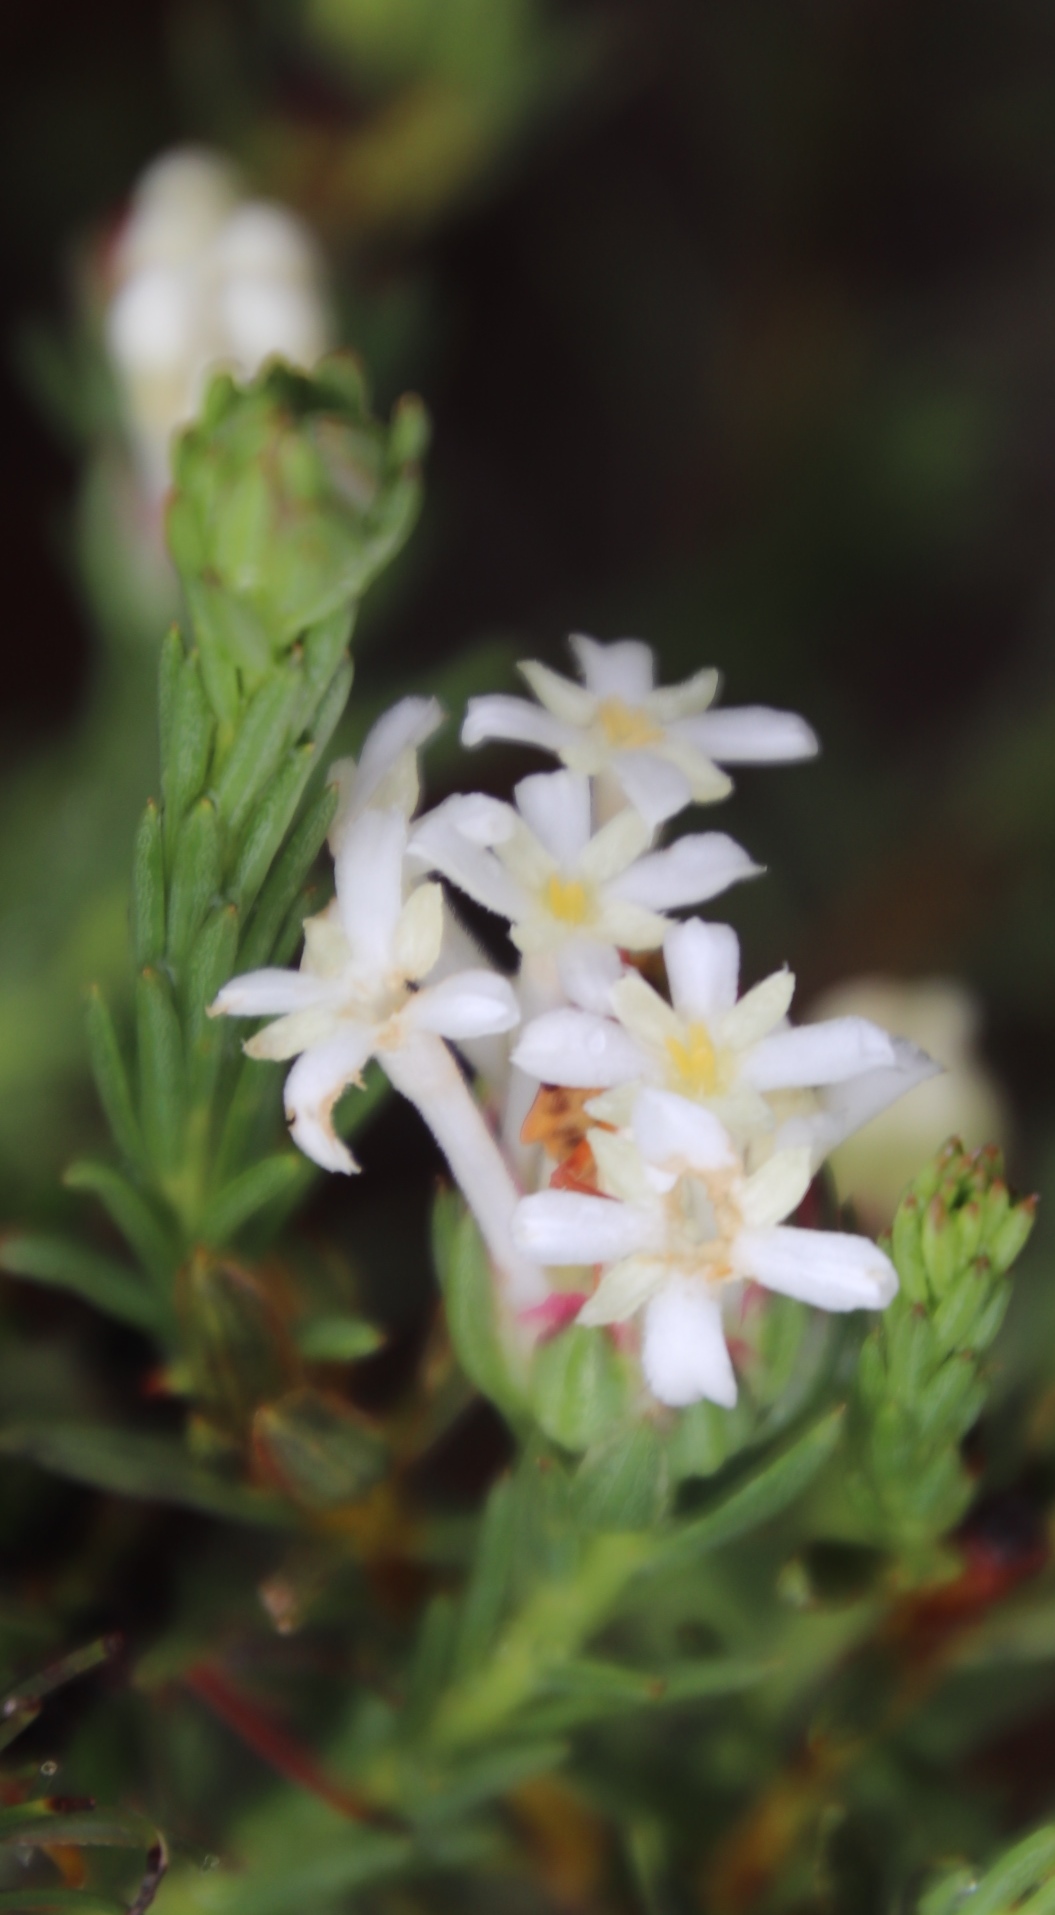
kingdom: Plantae
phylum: Tracheophyta
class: Magnoliopsida
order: Malvales
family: Thymelaeaceae
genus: Gnidia
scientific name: Gnidia pinifolia
